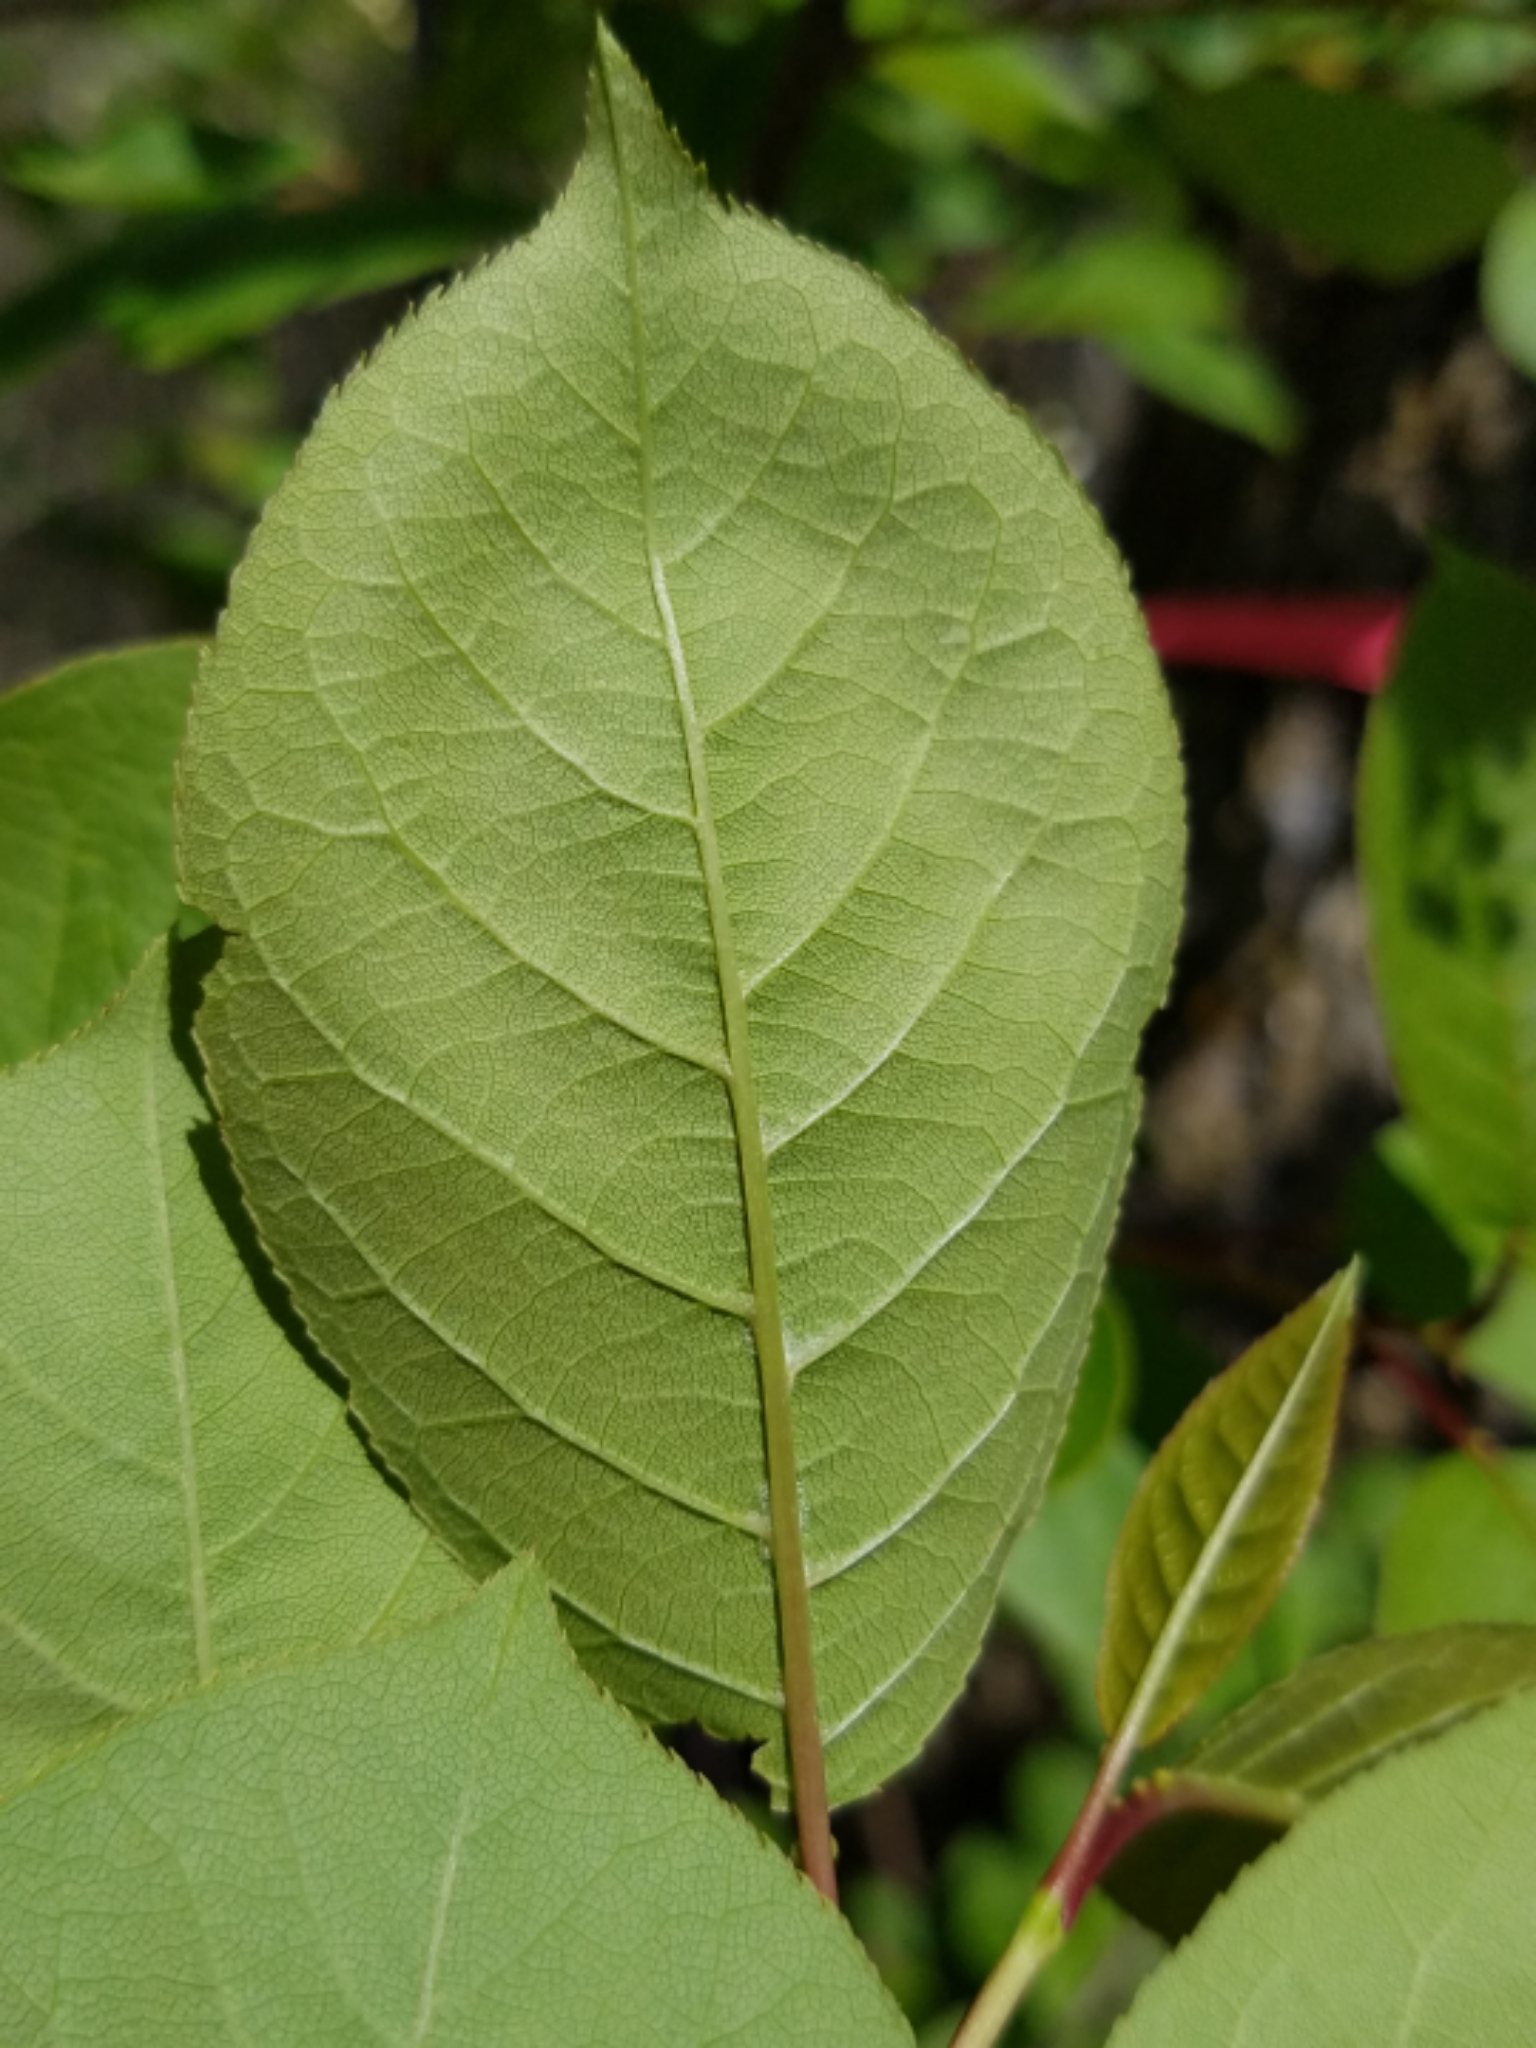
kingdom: Plantae
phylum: Tracheophyta
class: Magnoliopsida
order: Rosales
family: Rosaceae
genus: Prunus
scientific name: Prunus virginiana
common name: Chokecherry
